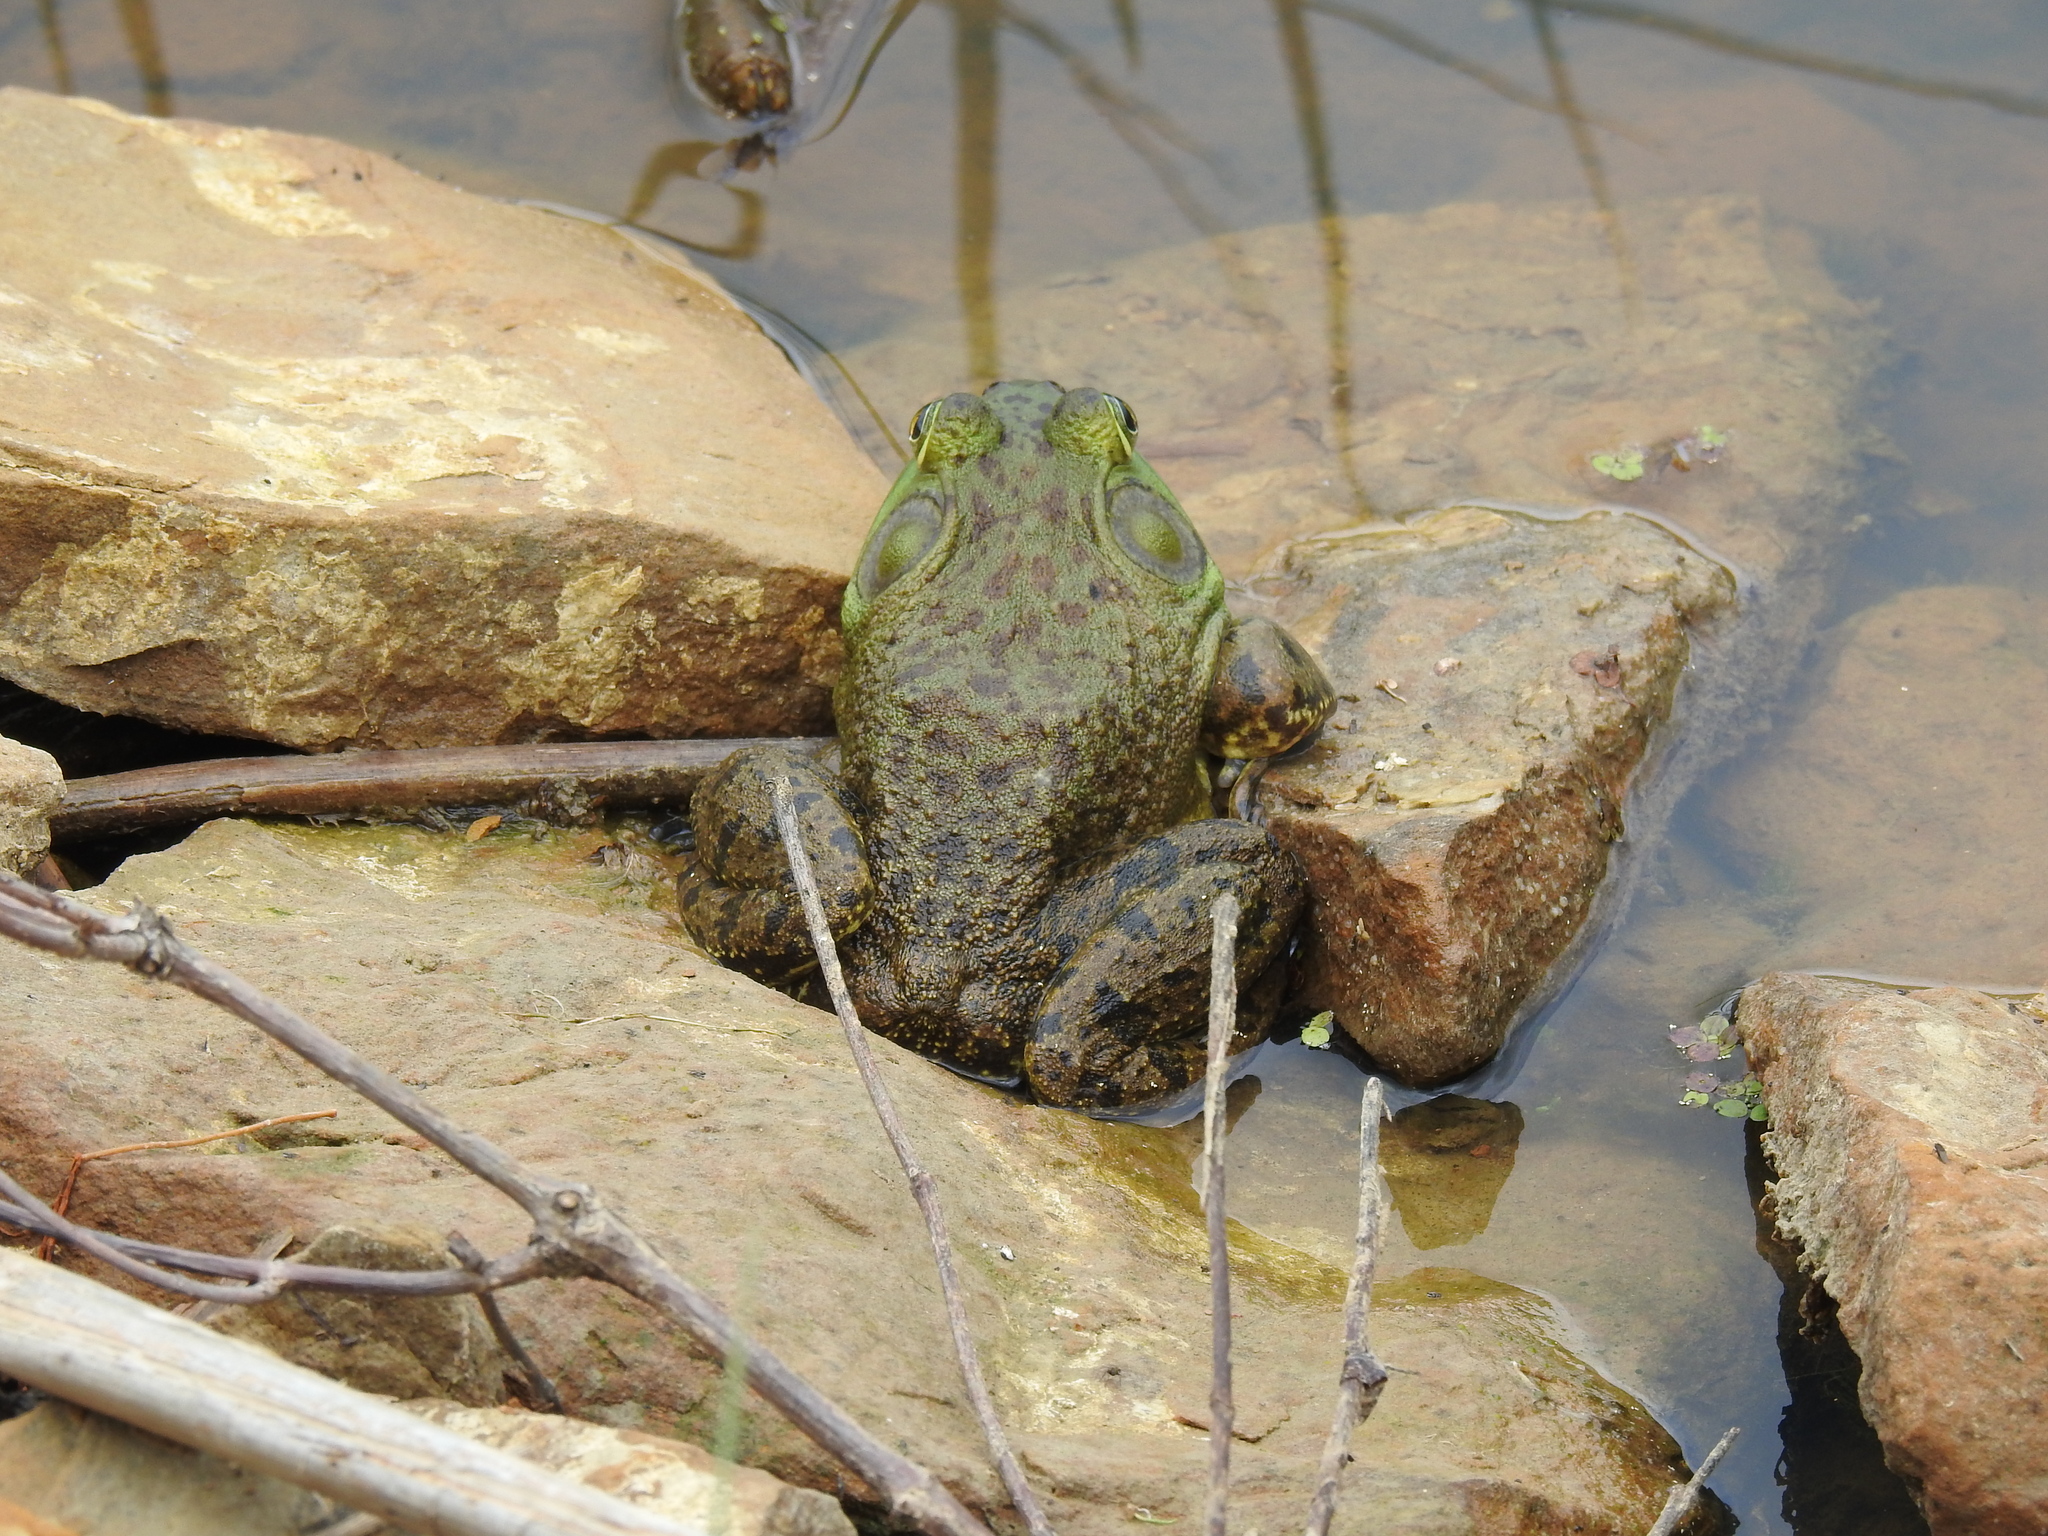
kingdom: Animalia
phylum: Chordata
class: Amphibia
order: Anura
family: Ranidae
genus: Lithobates
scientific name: Lithobates catesbeianus
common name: American bullfrog
